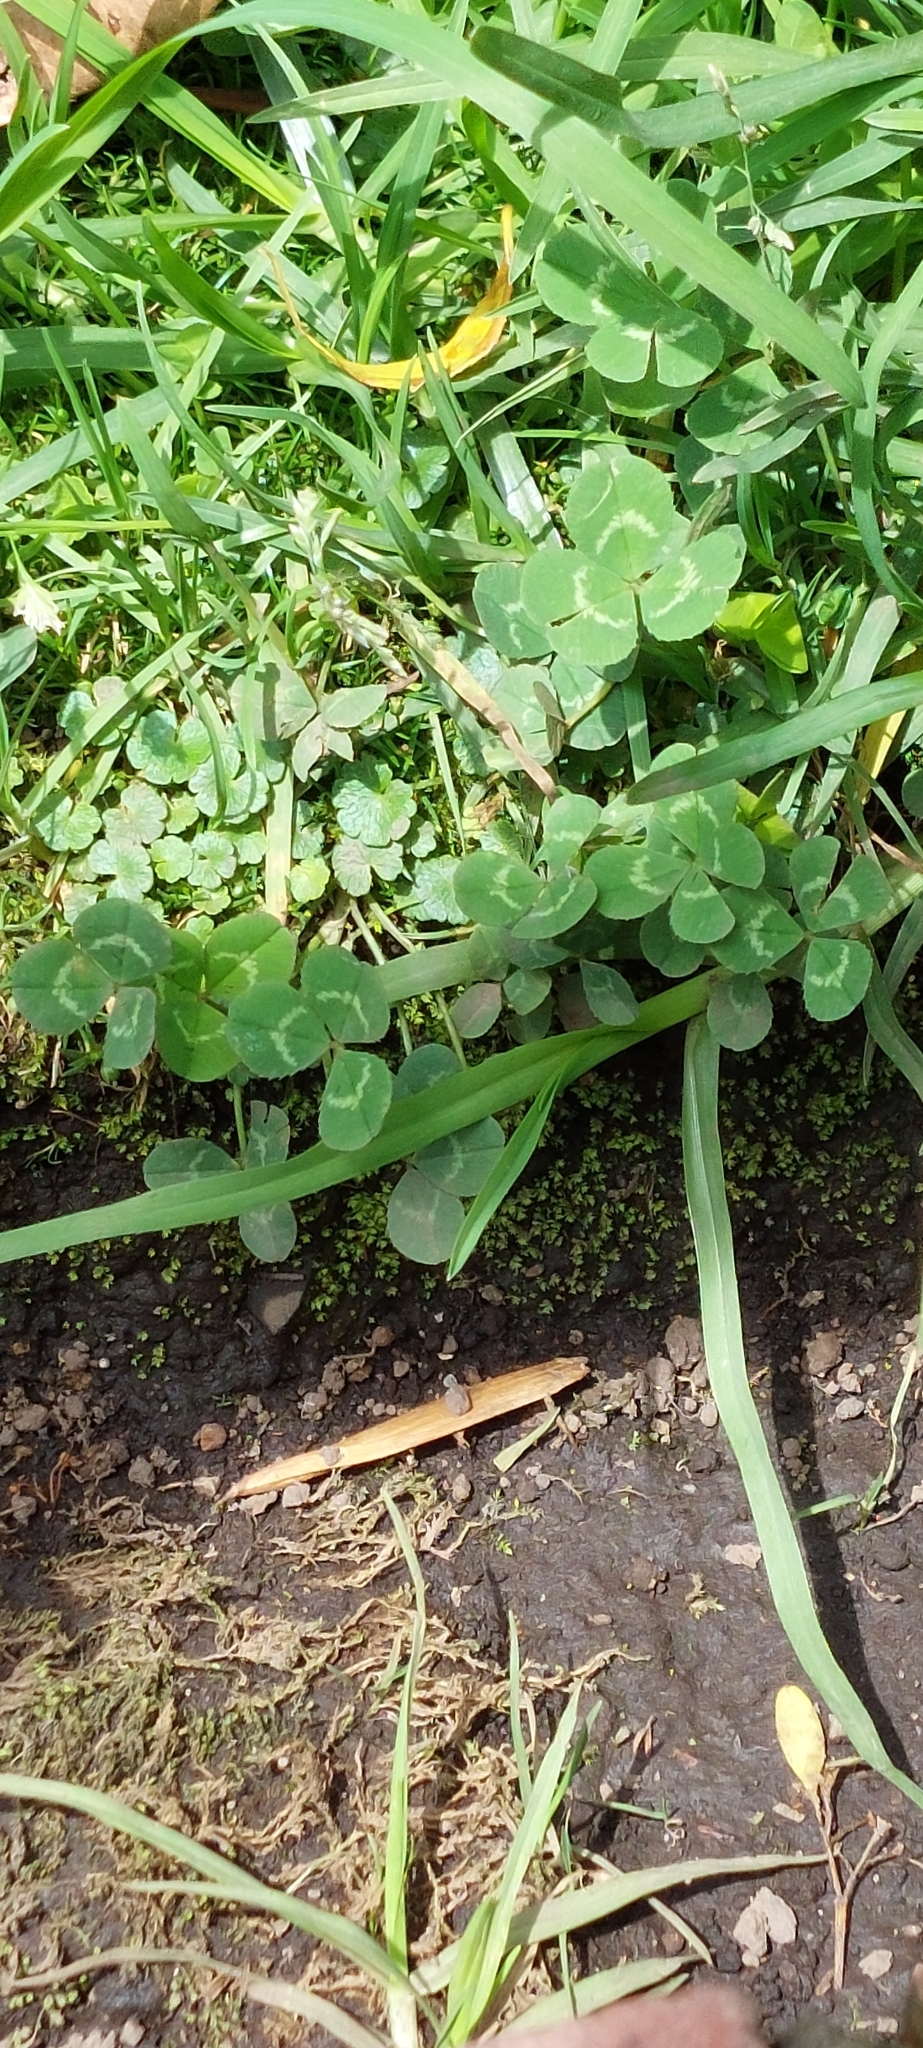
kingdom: Plantae
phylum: Tracheophyta
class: Magnoliopsida
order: Fabales
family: Fabaceae
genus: Trifolium
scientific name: Trifolium repens
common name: White clover
